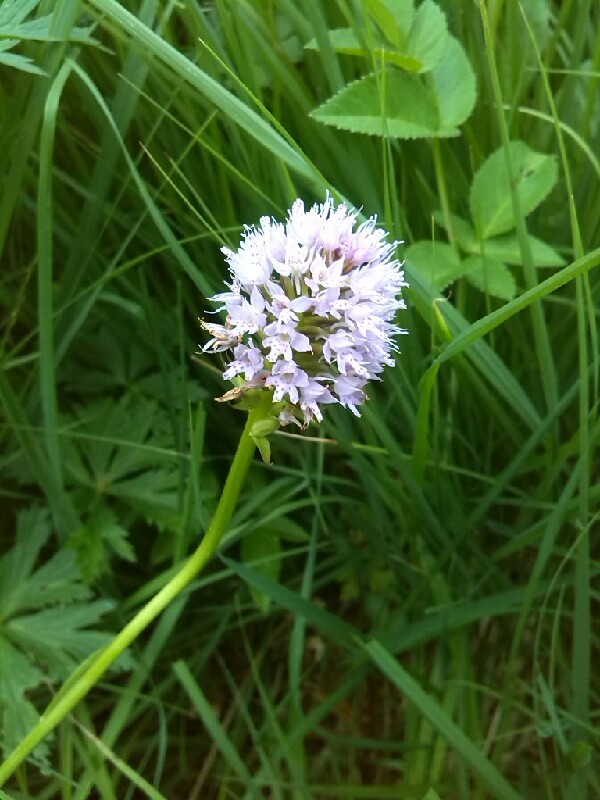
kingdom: Plantae
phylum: Tracheophyta
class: Liliopsida
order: Asparagales
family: Orchidaceae
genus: Traunsteinera
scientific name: Traunsteinera globosa
